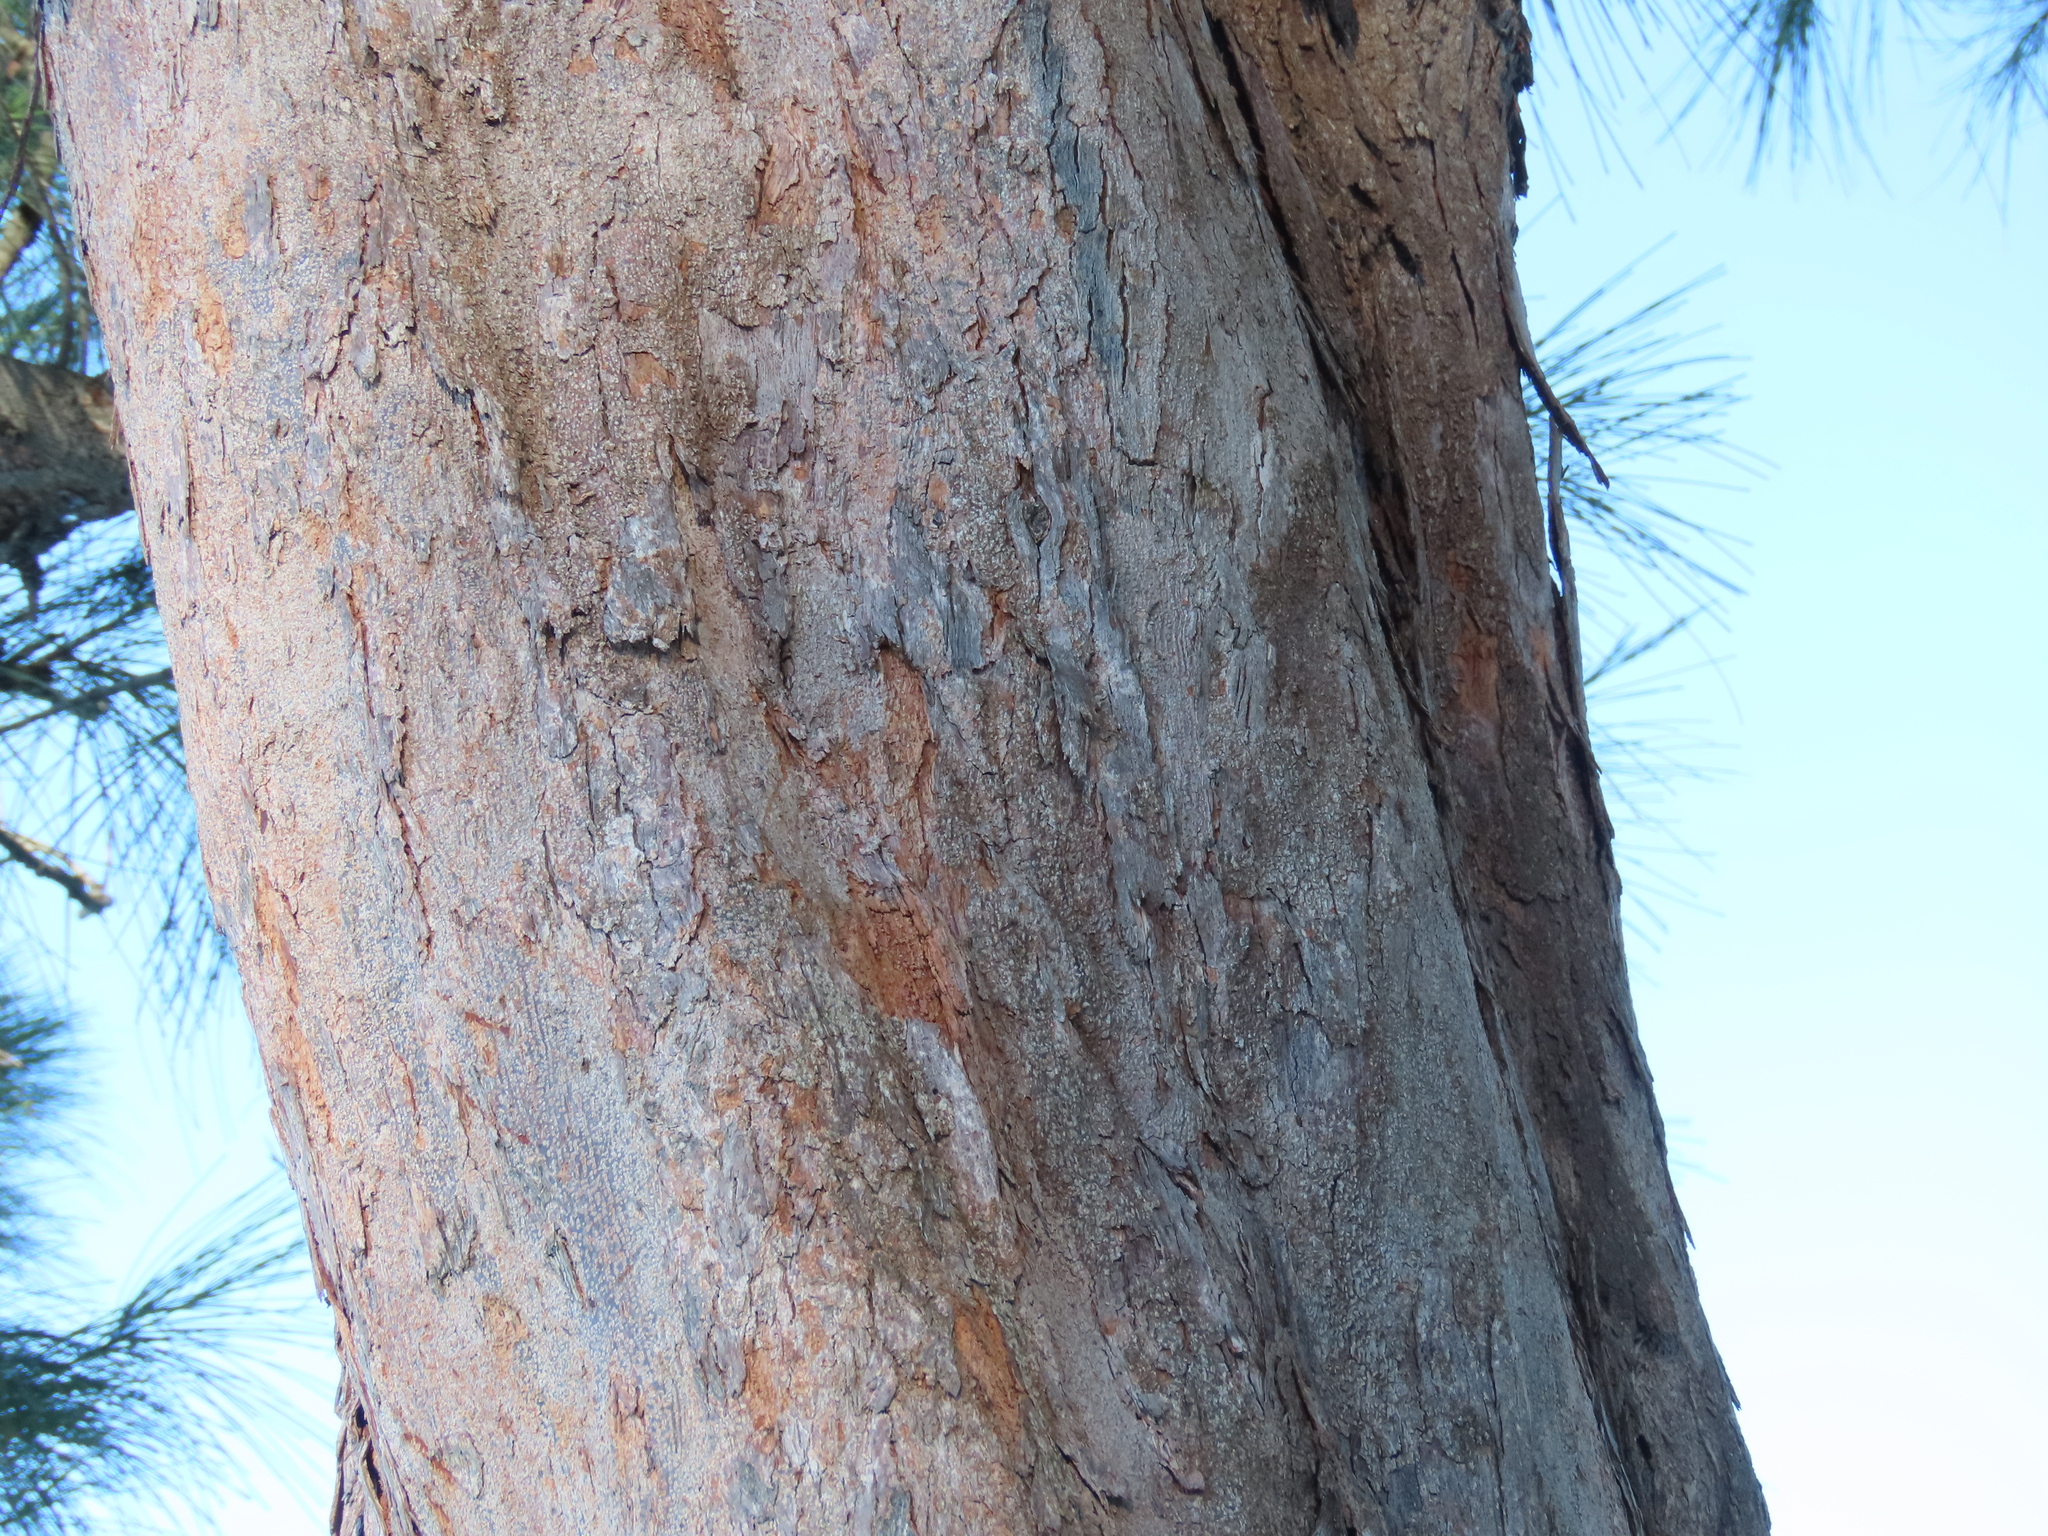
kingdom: Plantae
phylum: Tracheophyta
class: Magnoliopsida
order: Fagales
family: Casuarinaceae
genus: Casuarina
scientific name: Casuarina equisetifolia
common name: Beach sheoak
